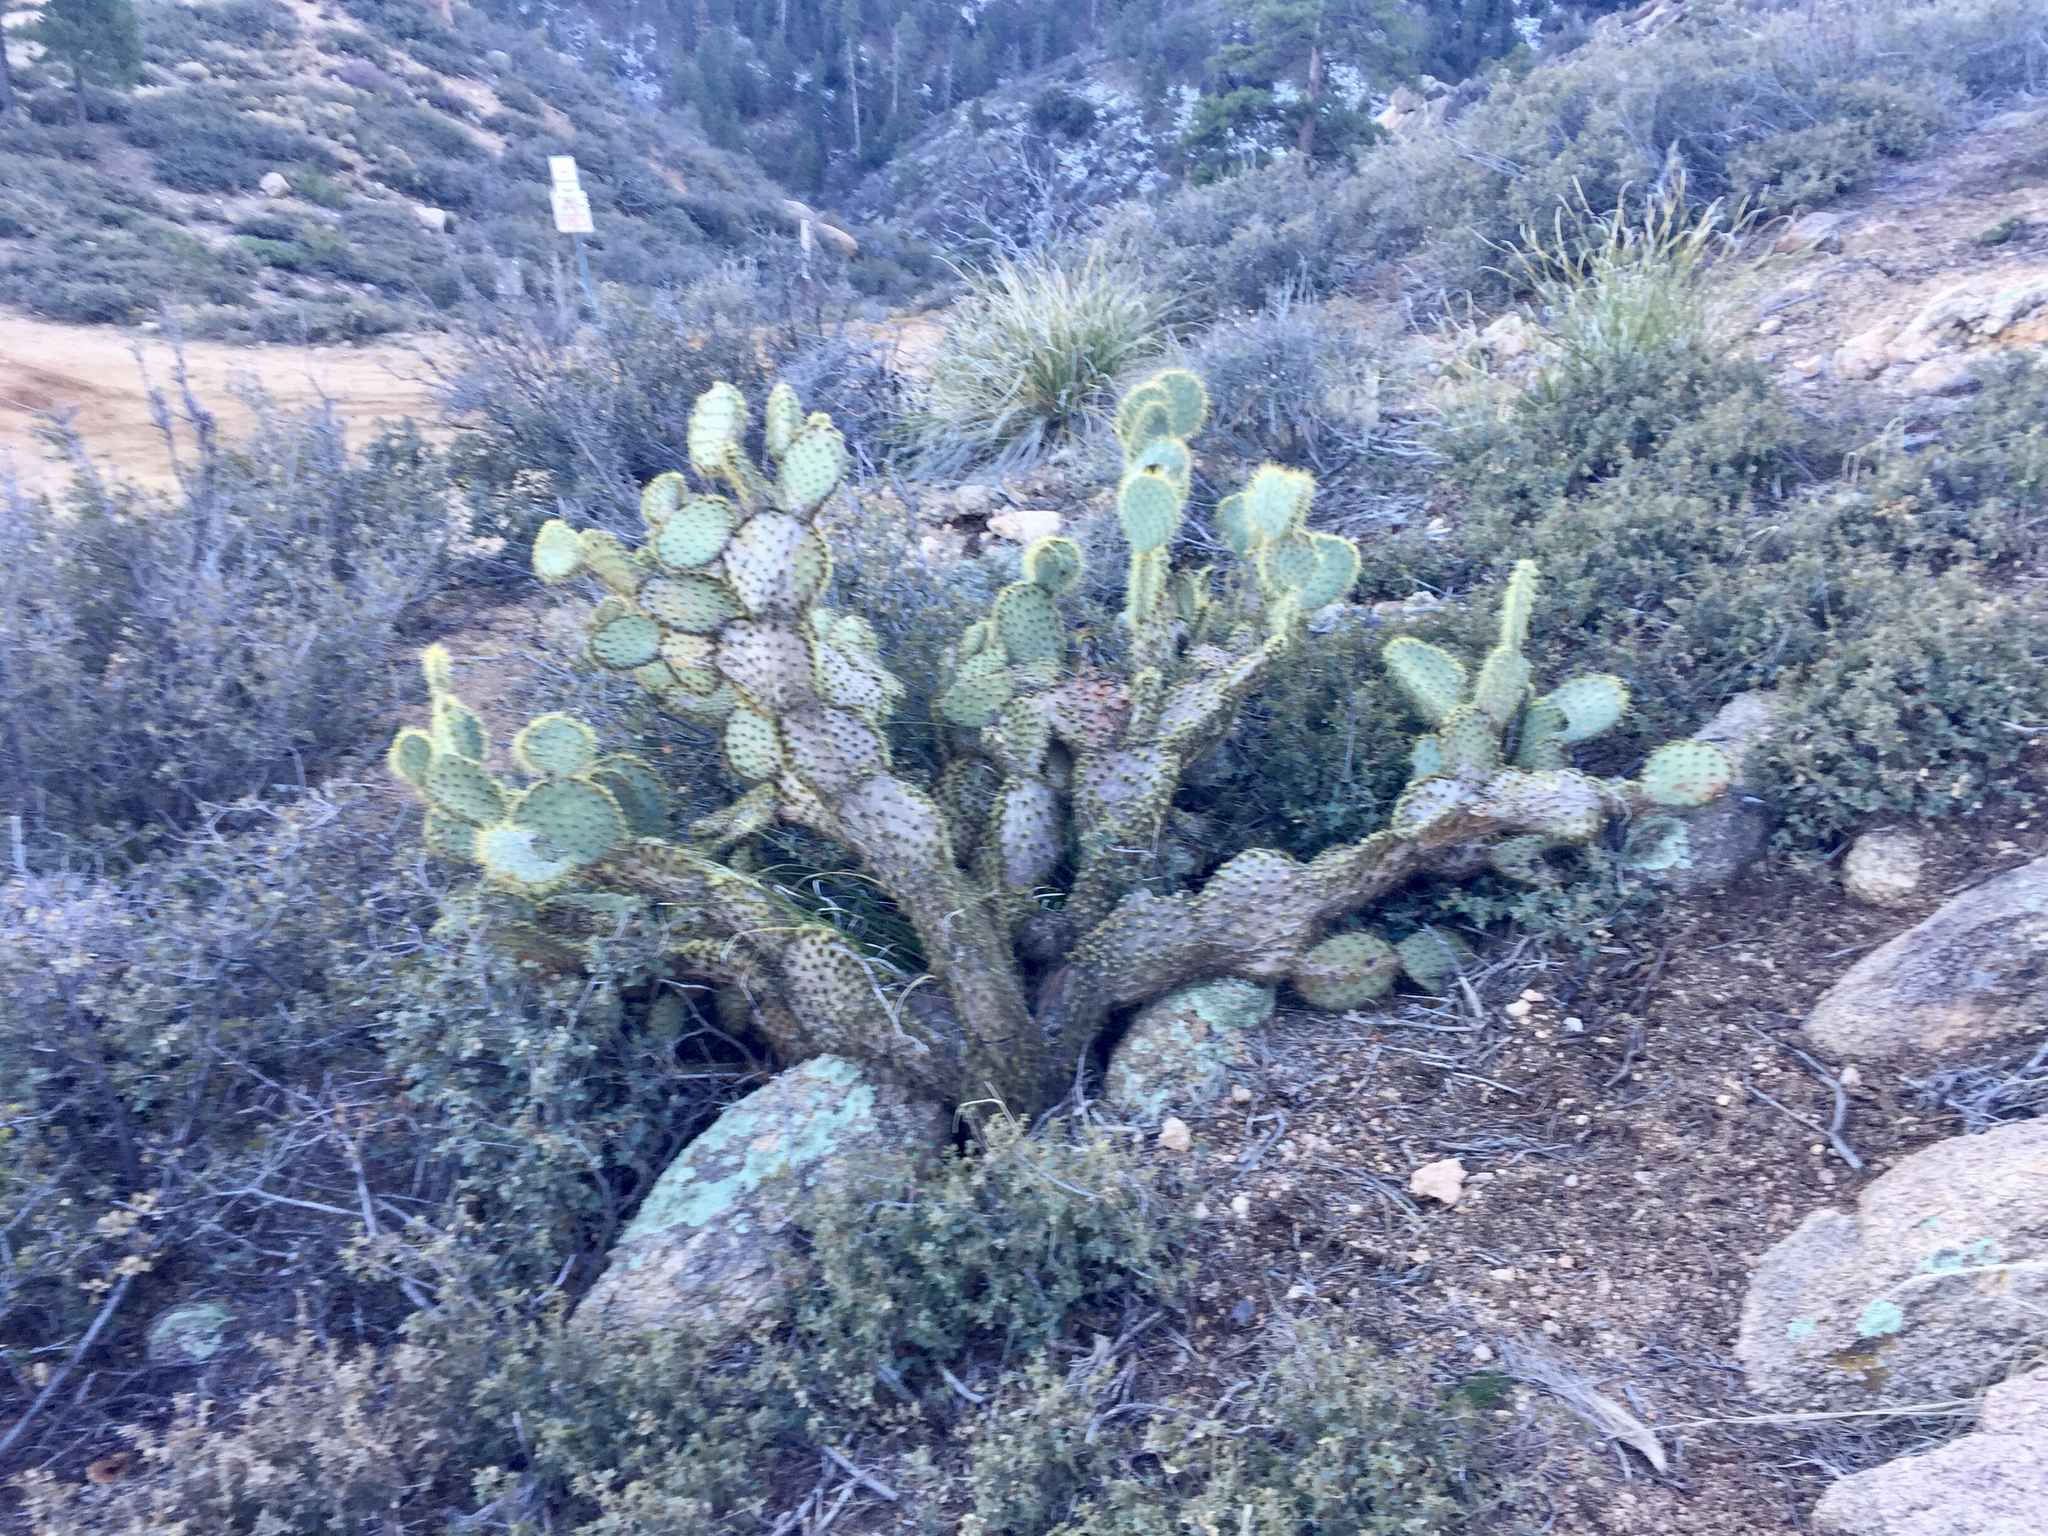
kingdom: Plantae
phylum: Tracheophyta
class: Magnoliopsida
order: Caryophyllales
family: Cactaceae
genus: Opuntia
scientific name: Opuntia chlorotica
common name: Dollar-joint prickly-pear
